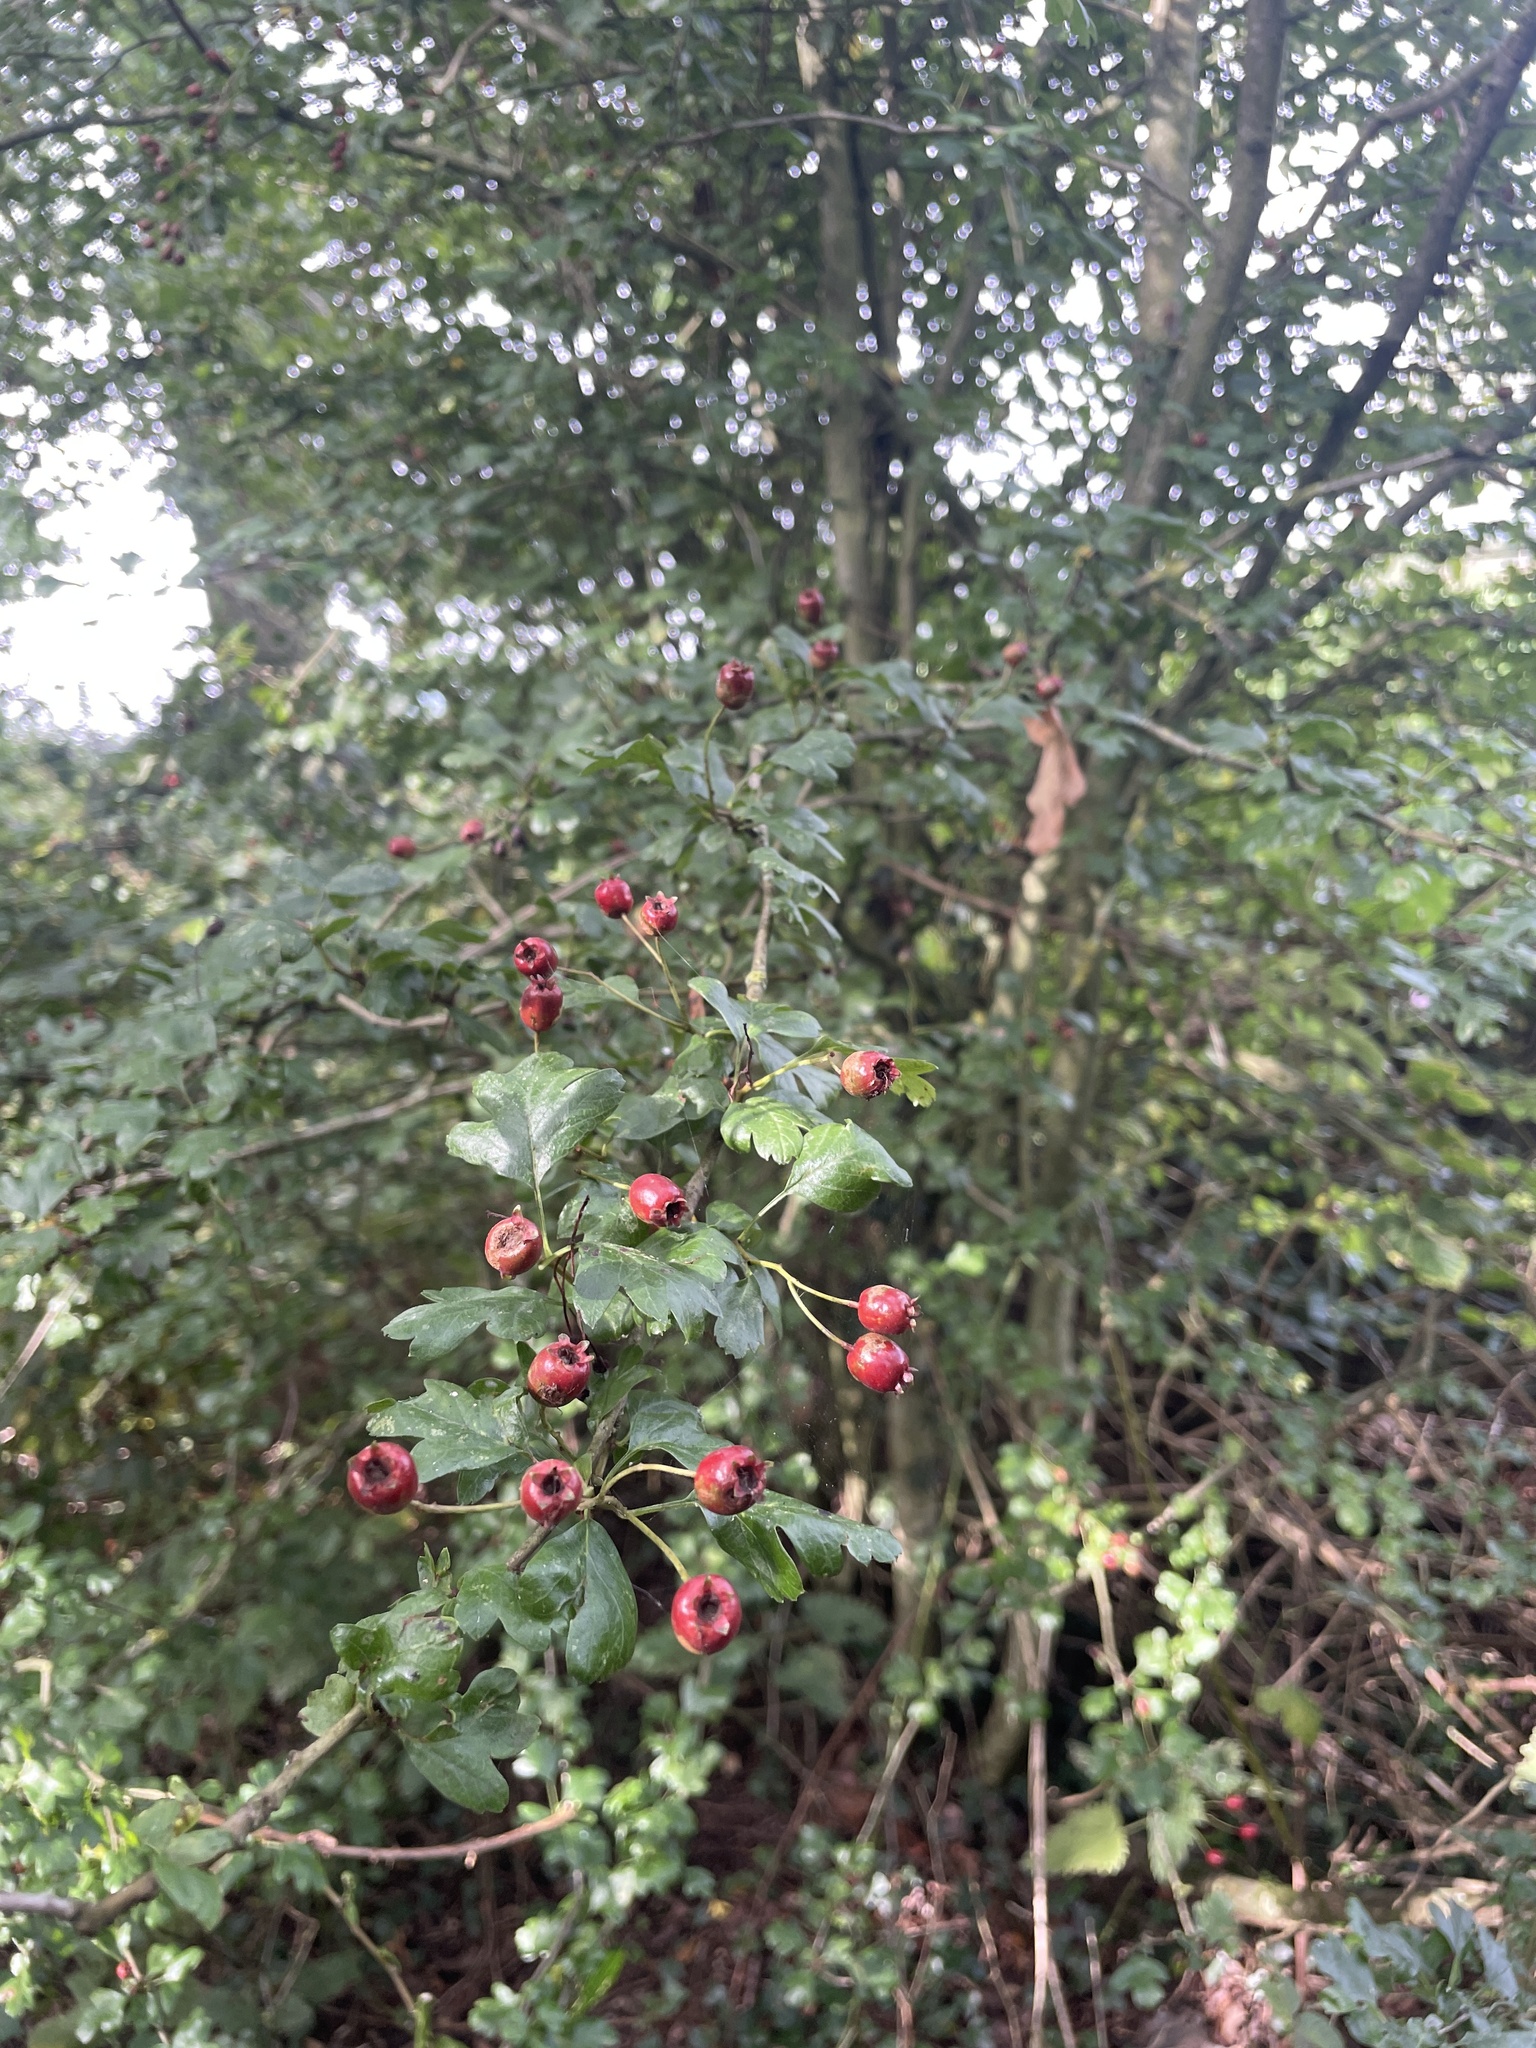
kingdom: Plantae
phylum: Tracheophyta
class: Magnoliopsida
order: Rosales
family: Rosaceae
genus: Crataegus
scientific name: Crataegus monogyna
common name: Hawthorn
